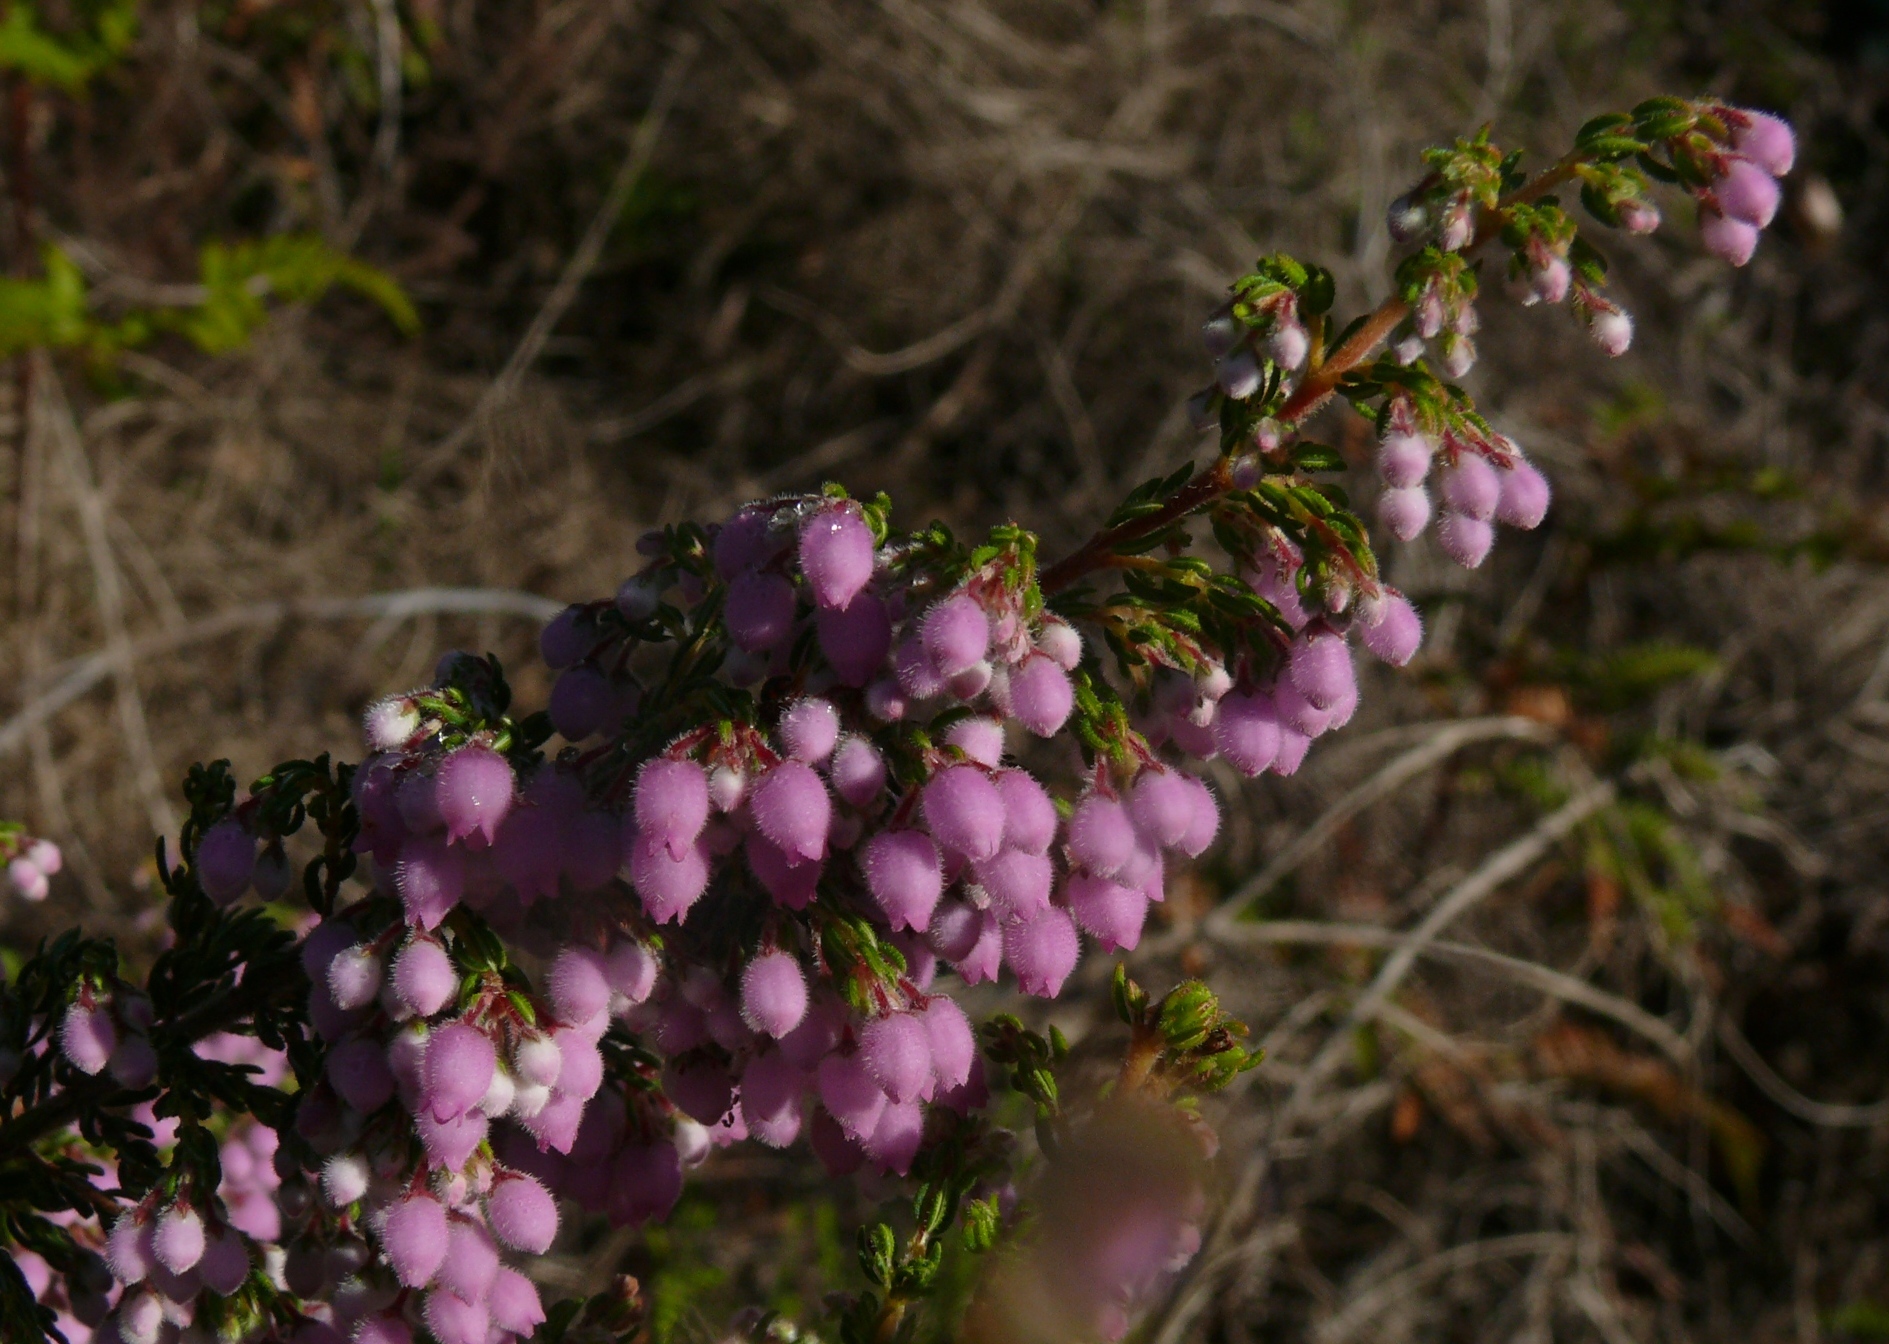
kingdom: Plantae
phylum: Tracheophyta
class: Magnoliopsida
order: Ericales
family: Ericaceae
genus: Erica
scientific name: Erica hirtiflora
